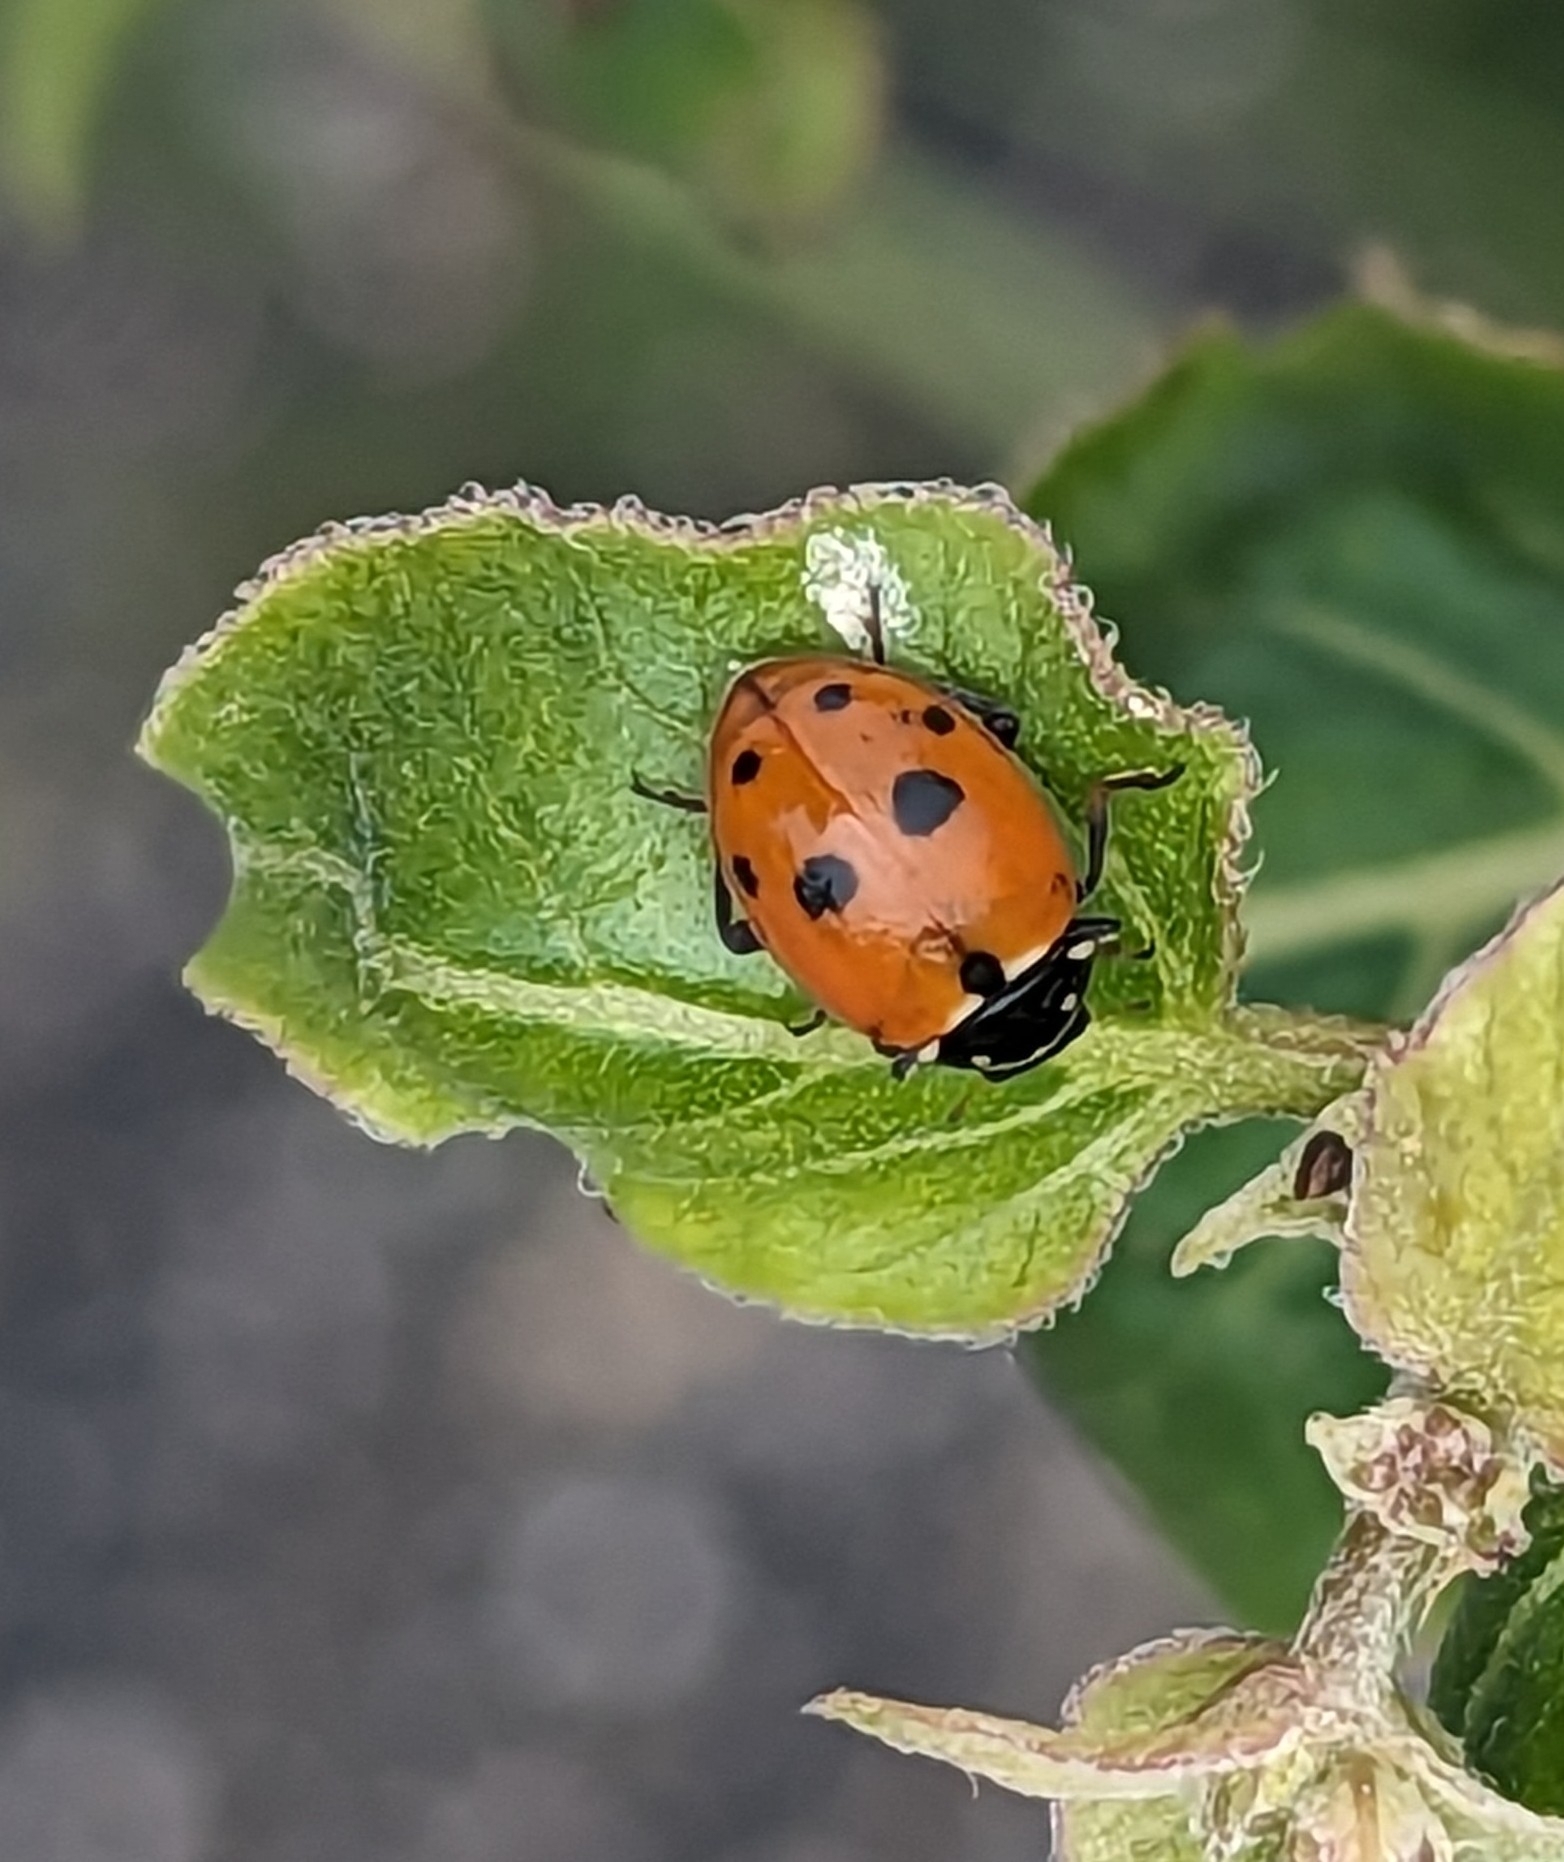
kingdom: Animalia
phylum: Arthropoda
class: Insecta
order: Coleoptera
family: Coccinellidae
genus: Hippodamia
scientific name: Hippodamia variegata
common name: Ladybird beetle
